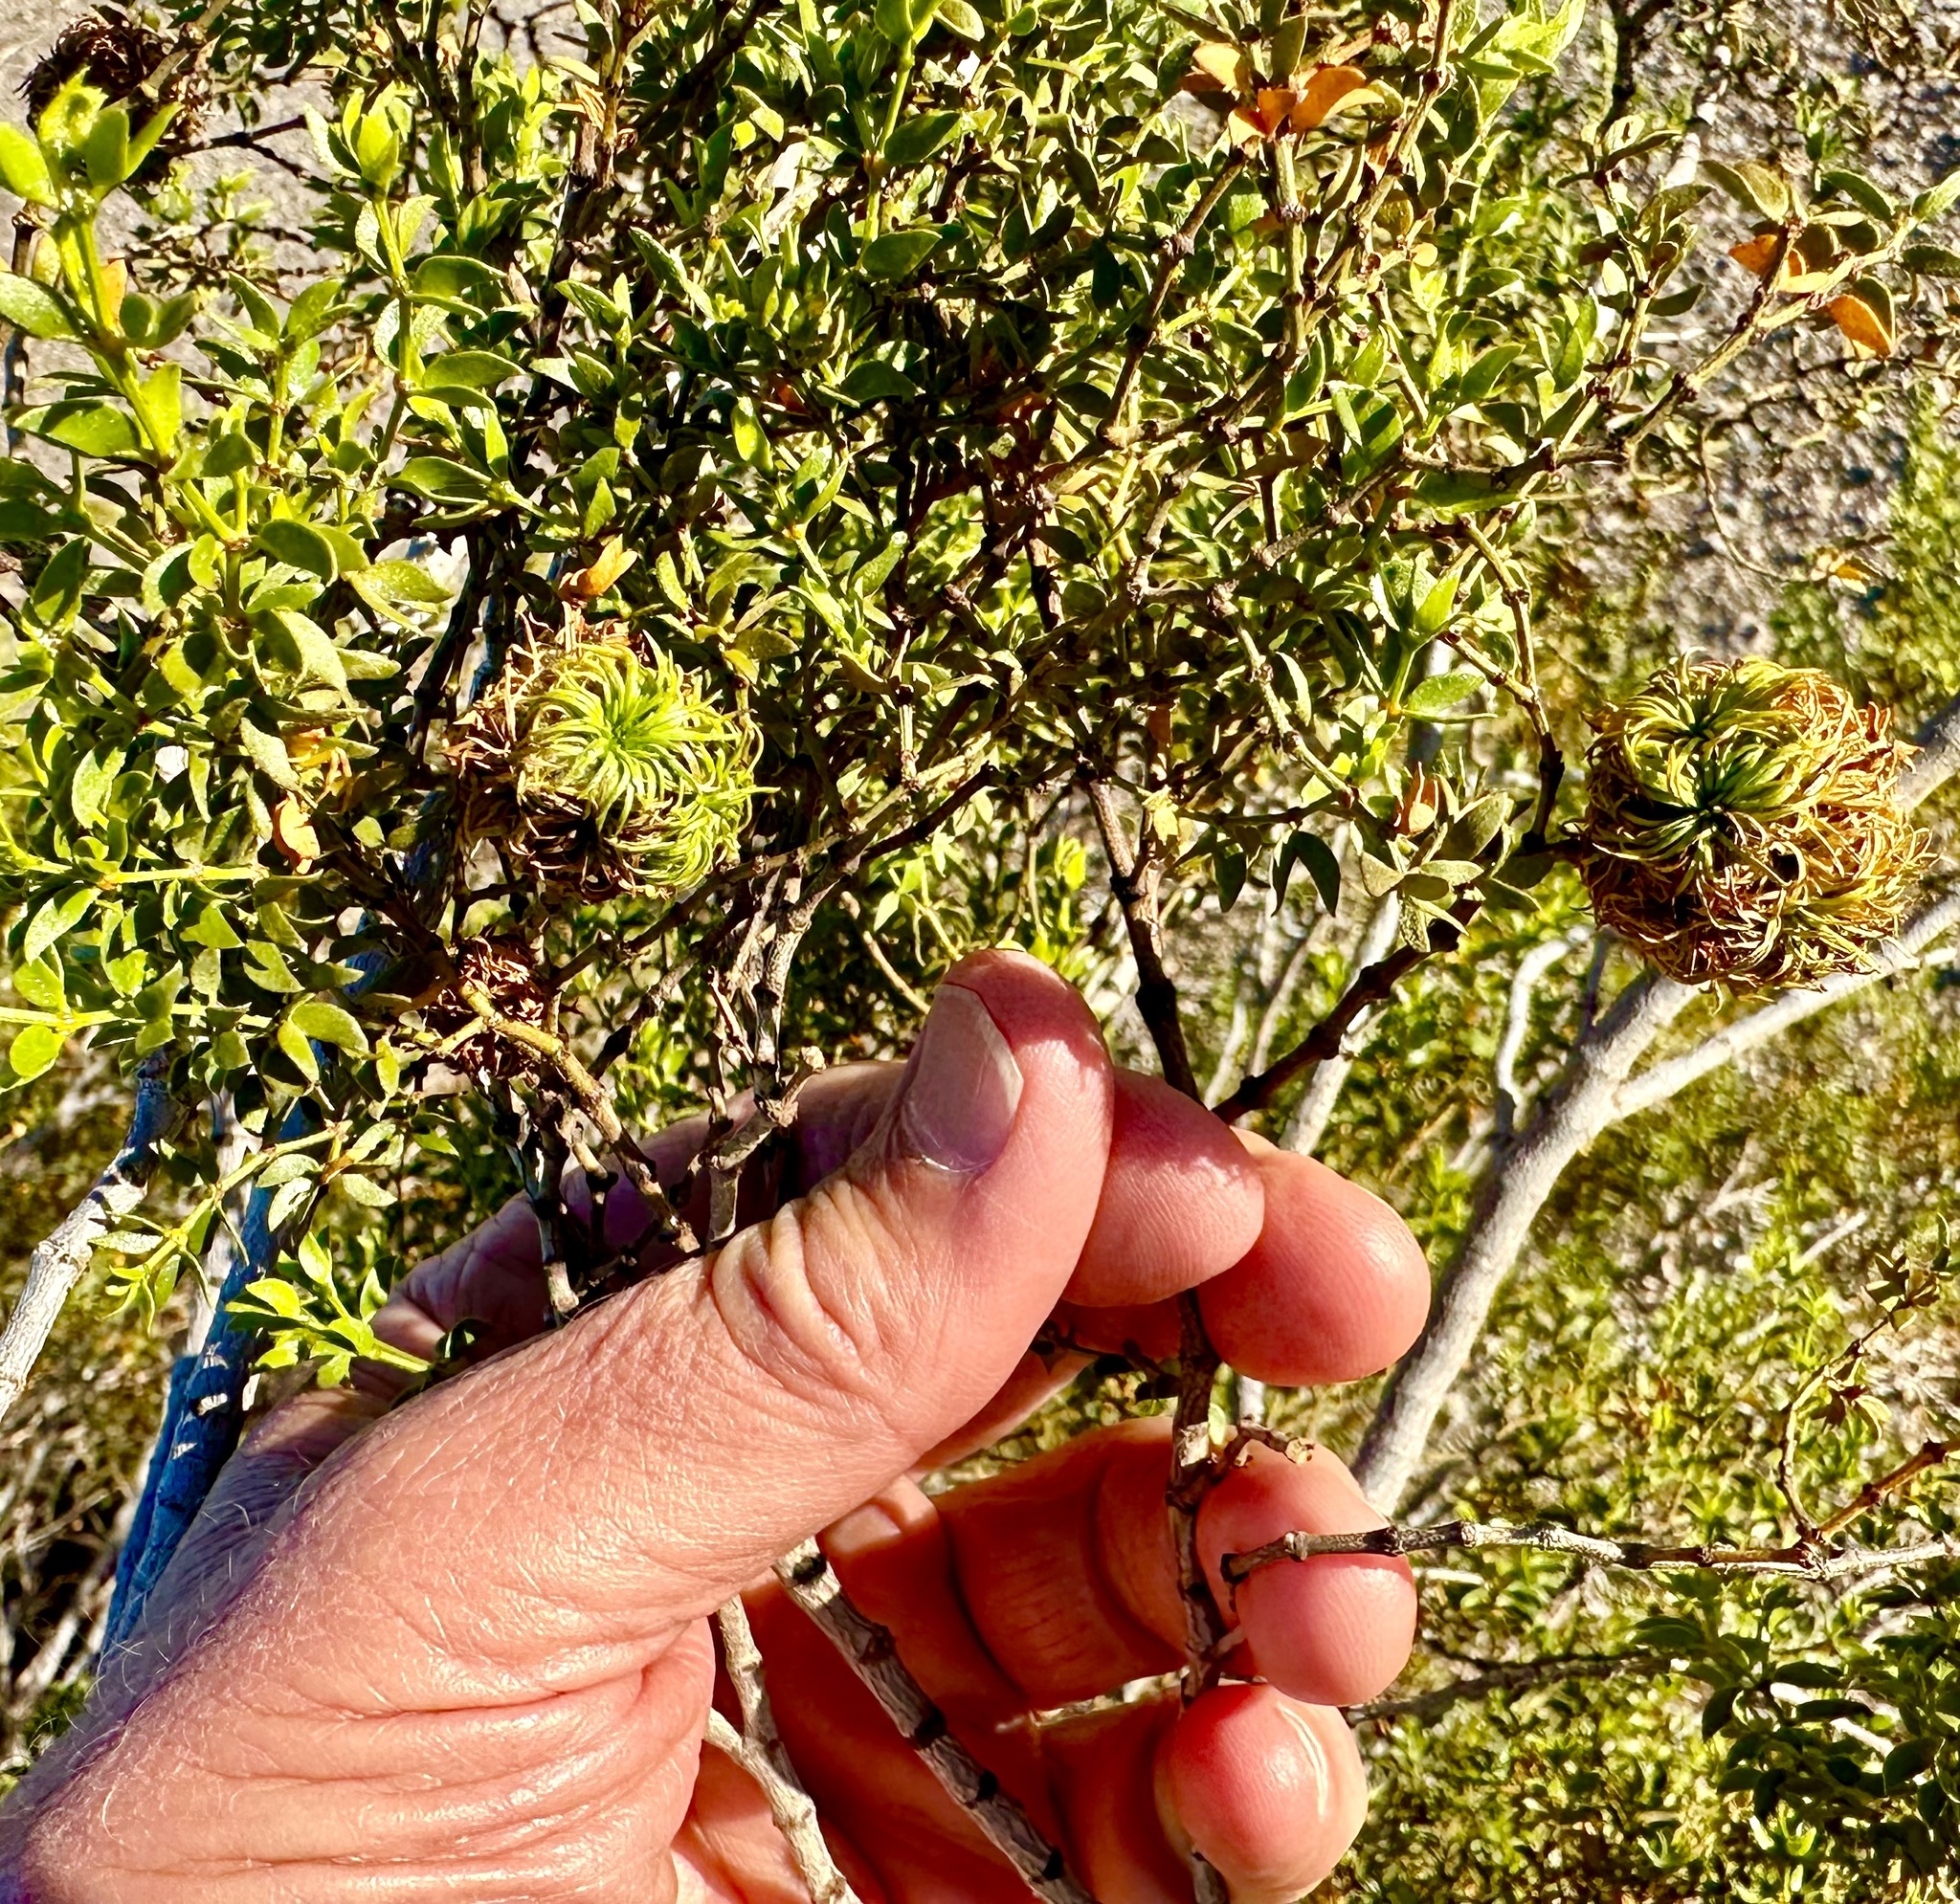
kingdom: Animalia
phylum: Arthropoda
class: Insecta
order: Diptera
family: Cecidomyiidae
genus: Asphondylia
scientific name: Asphondylia auripila
